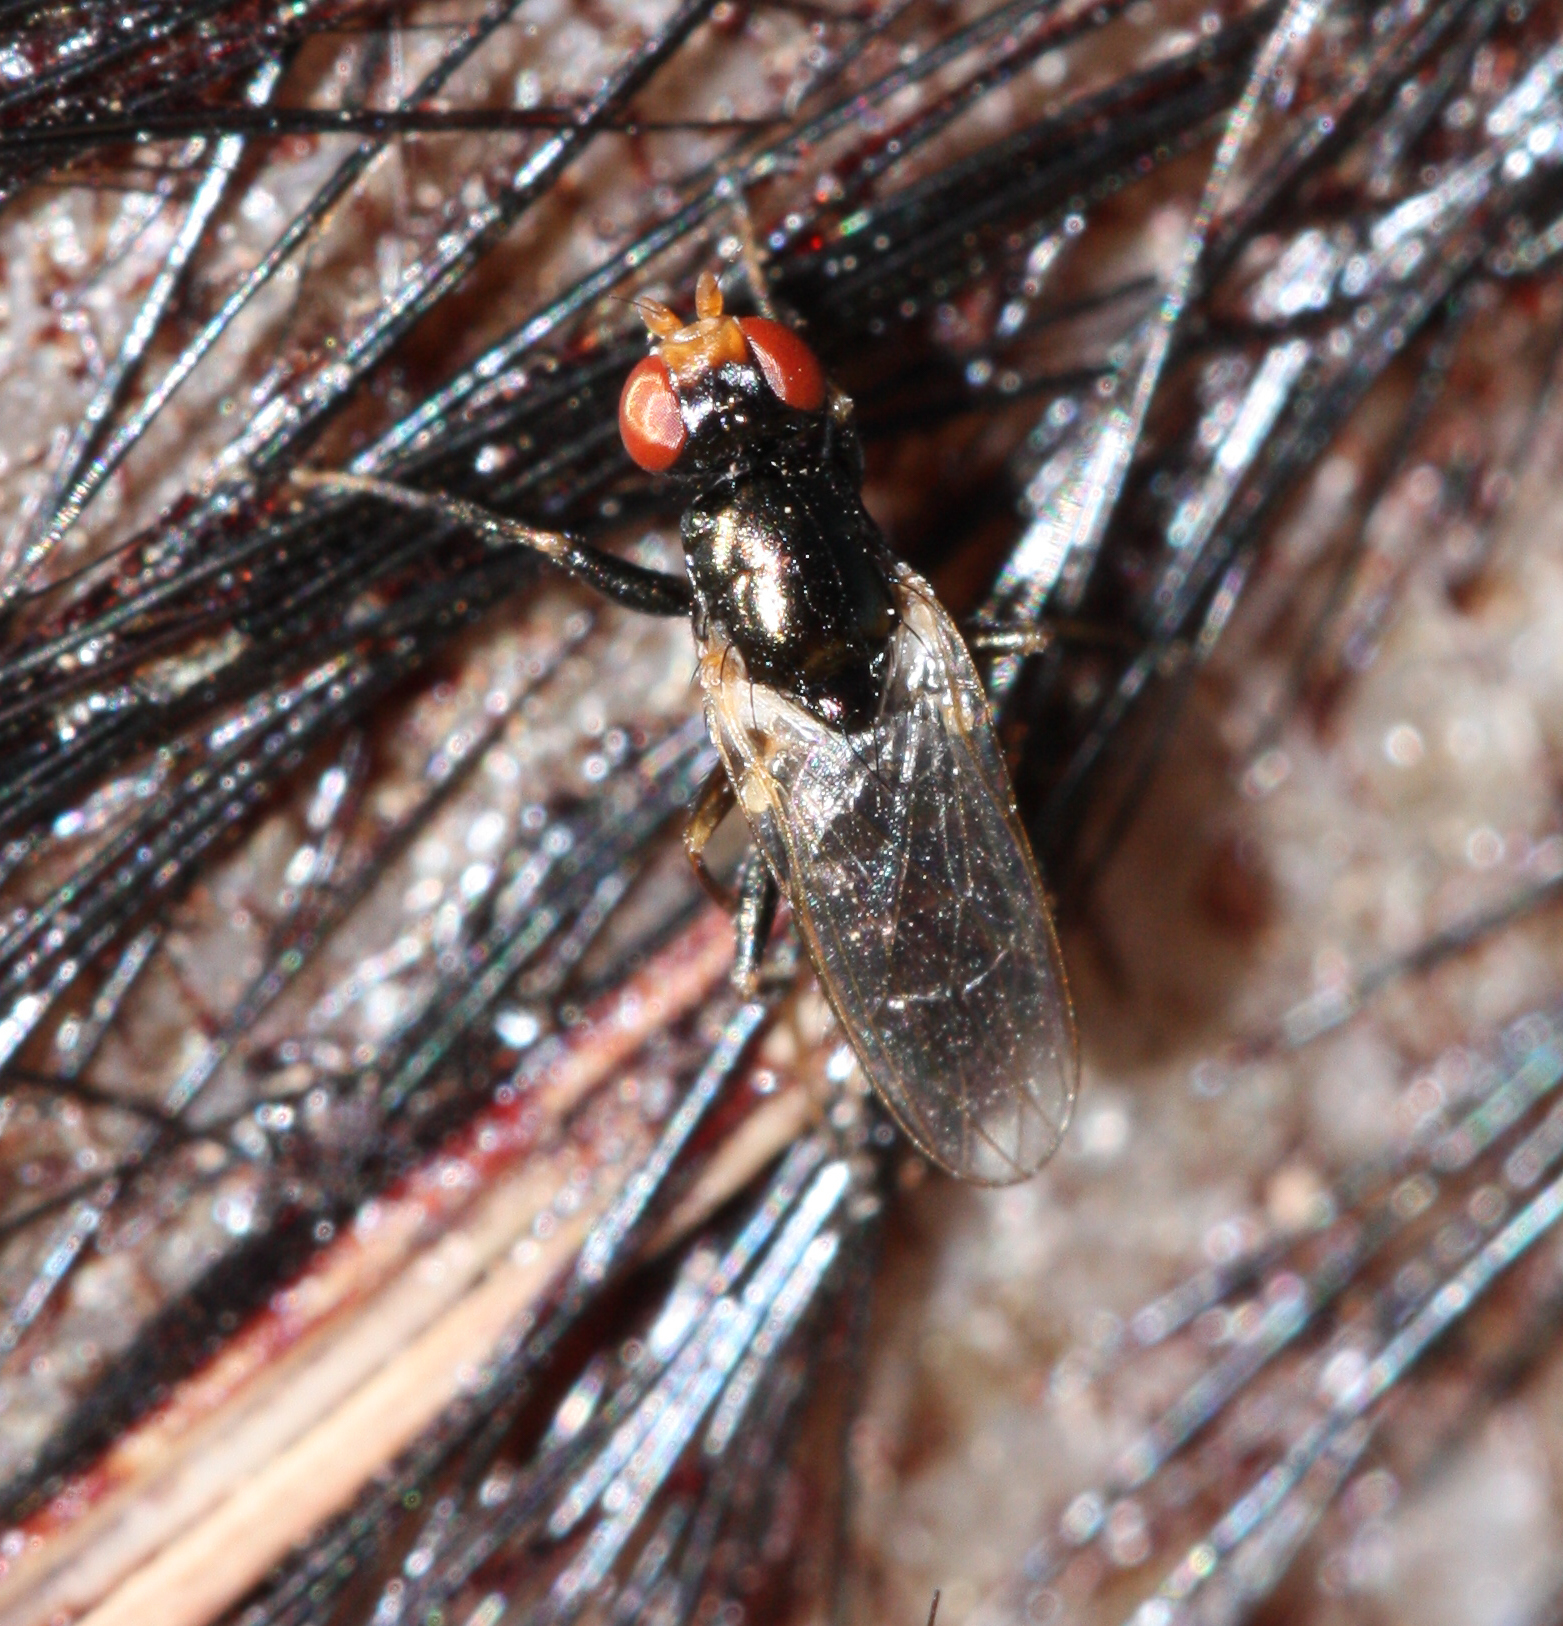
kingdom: Animalia
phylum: Arthropoda
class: Insecta
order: Diptera
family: Piophilidae
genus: Piophila
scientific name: Piophila casei
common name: Cheese skipper
